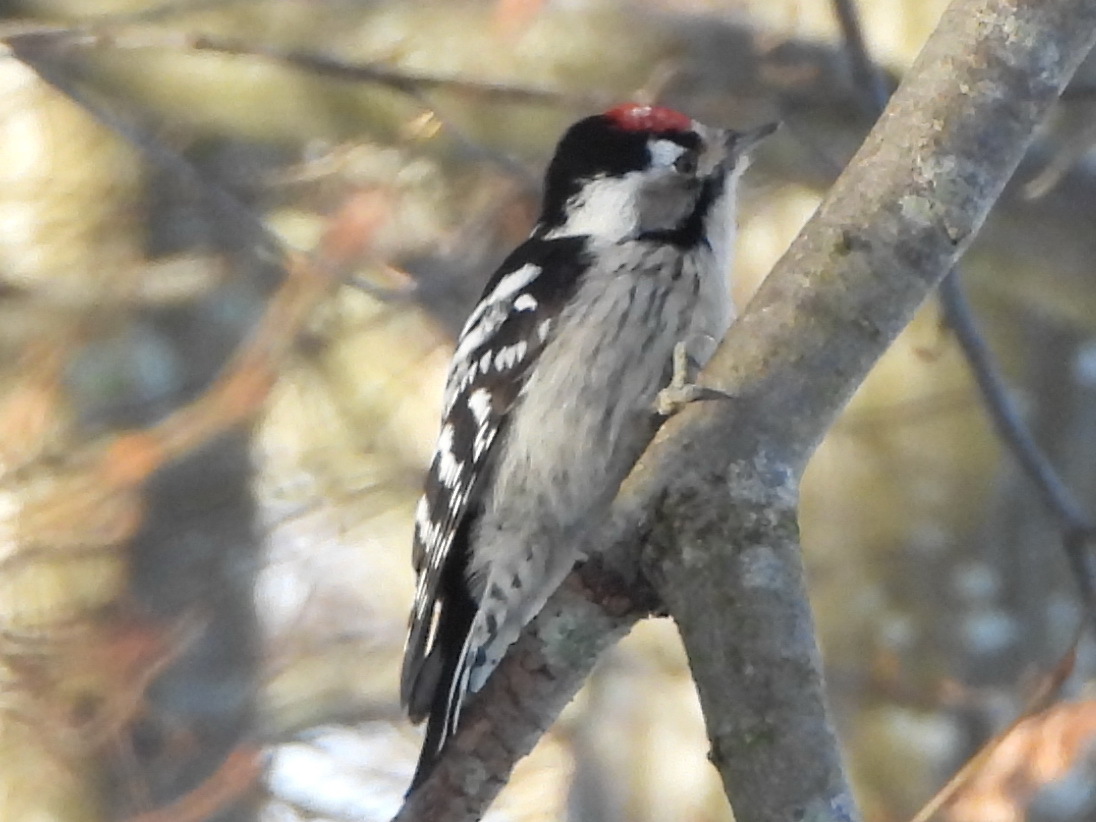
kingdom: Animalia
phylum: Chordata
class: Aves
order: Piciformes
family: Picidae
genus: Dryobates
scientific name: Dryobates minor
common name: Lesser spotted woodpecker
